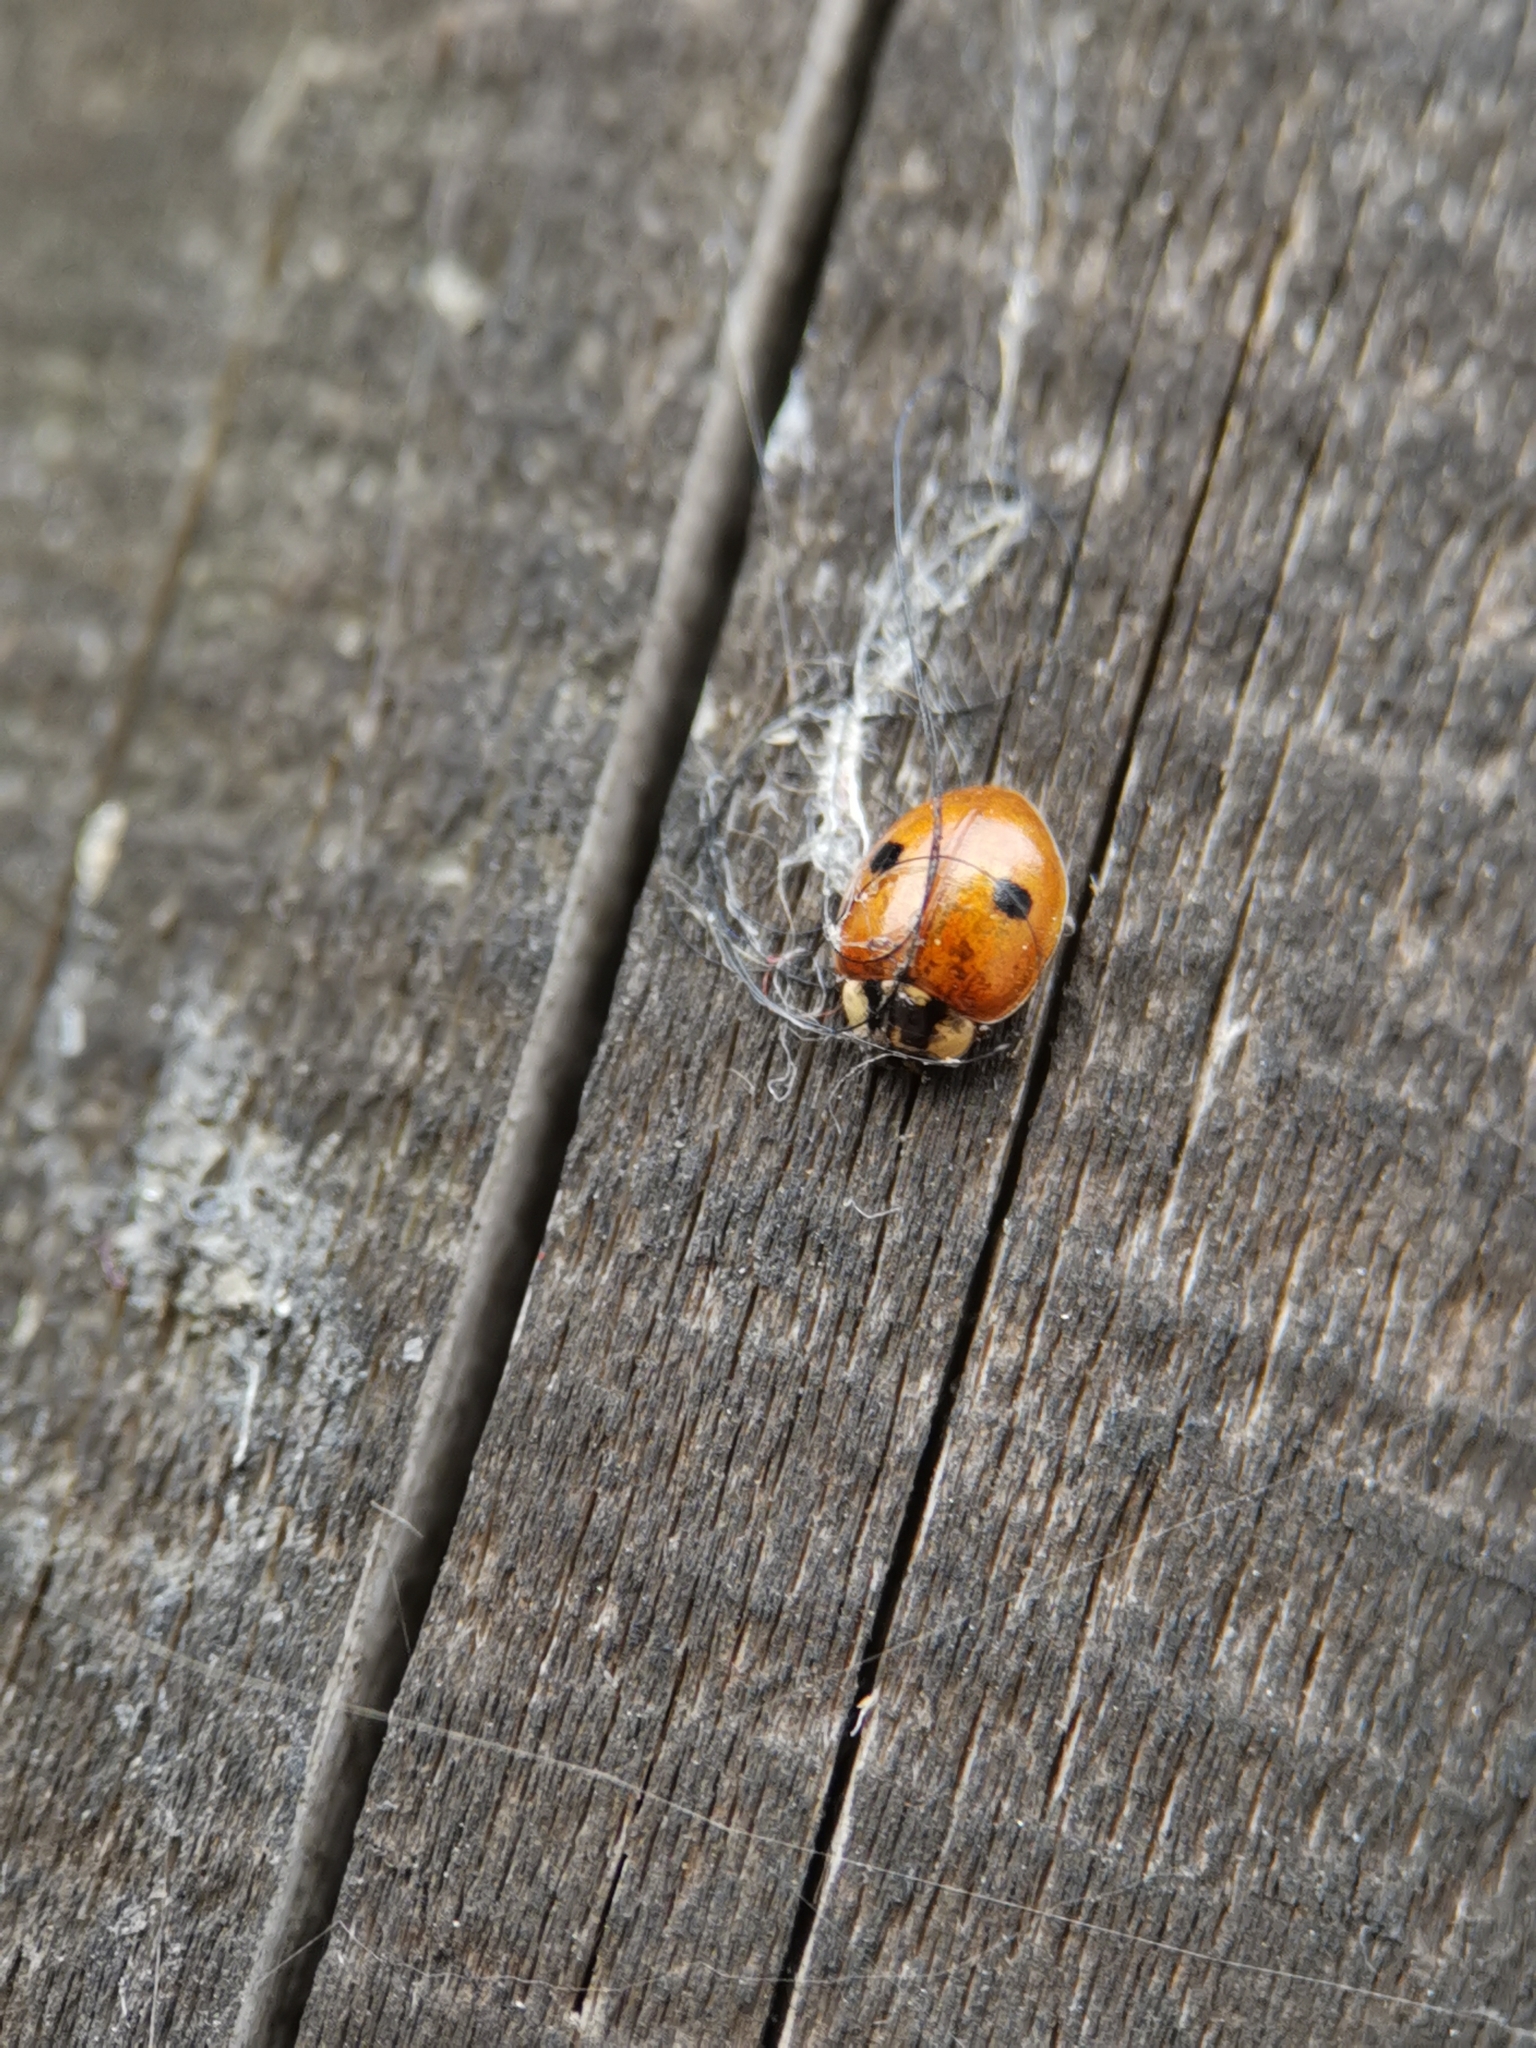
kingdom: Animalia
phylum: Arthropoda
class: Insecta
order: Coleoptera
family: Coccinellidae
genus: Adalia
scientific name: Adalia bipunctata
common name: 2-spot ladybird
